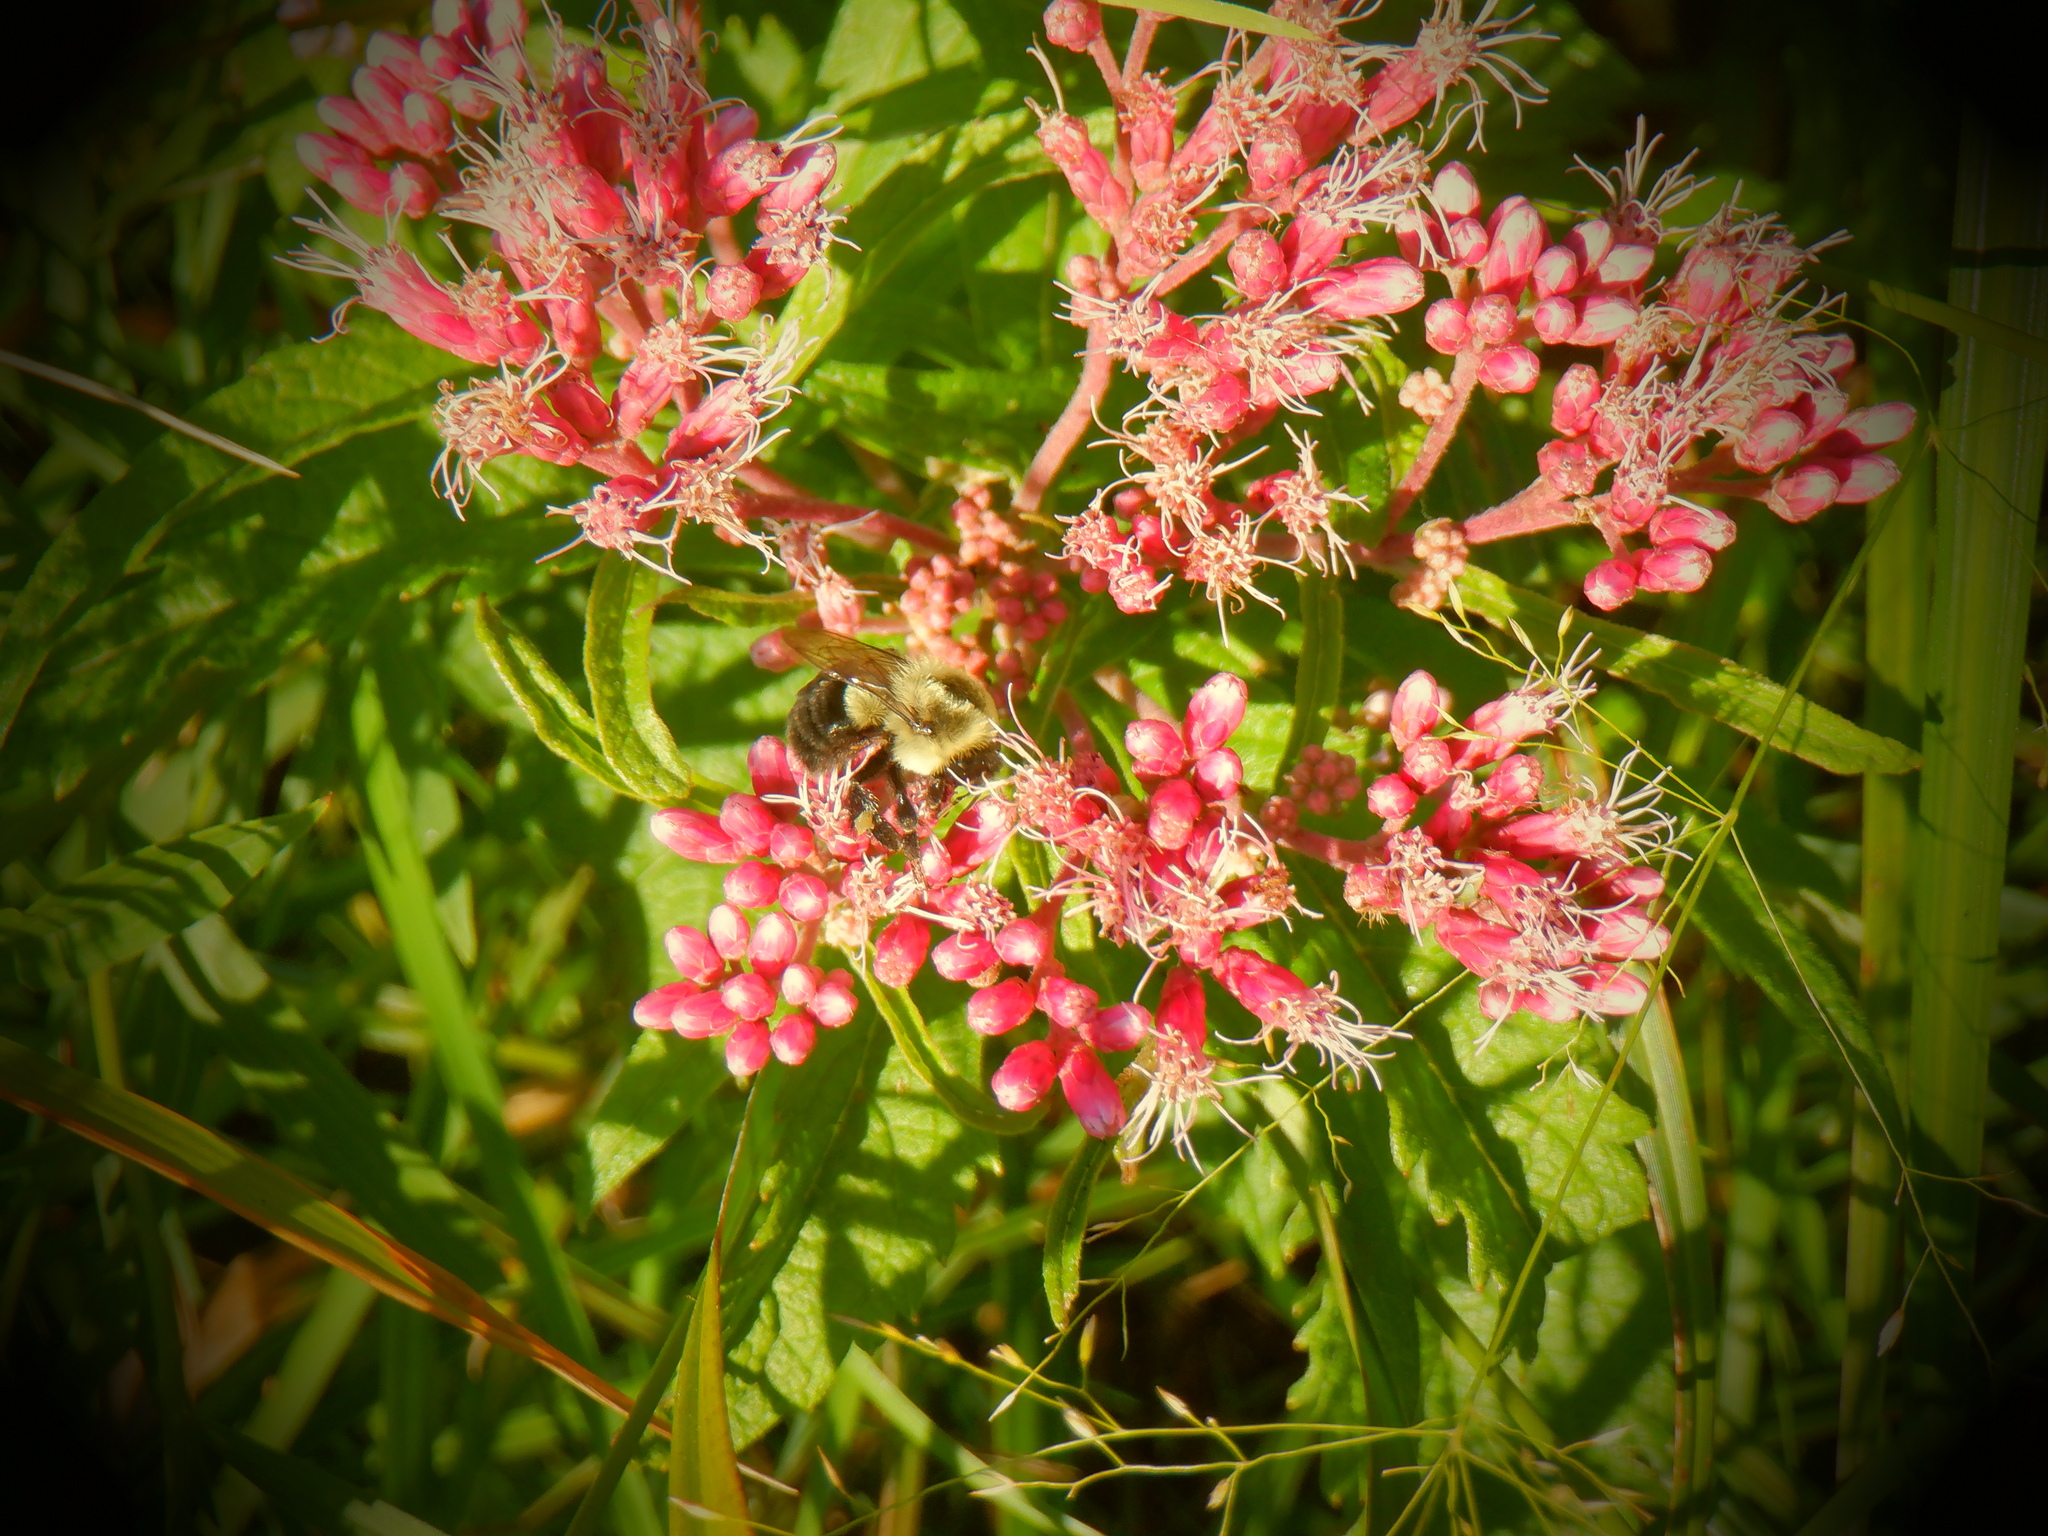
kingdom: Animalia
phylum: Arthropoda
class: Insecta
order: Hymenoptera
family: Apidae
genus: Bombus
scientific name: Bombus impatiens
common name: Common eastern bumble bee
